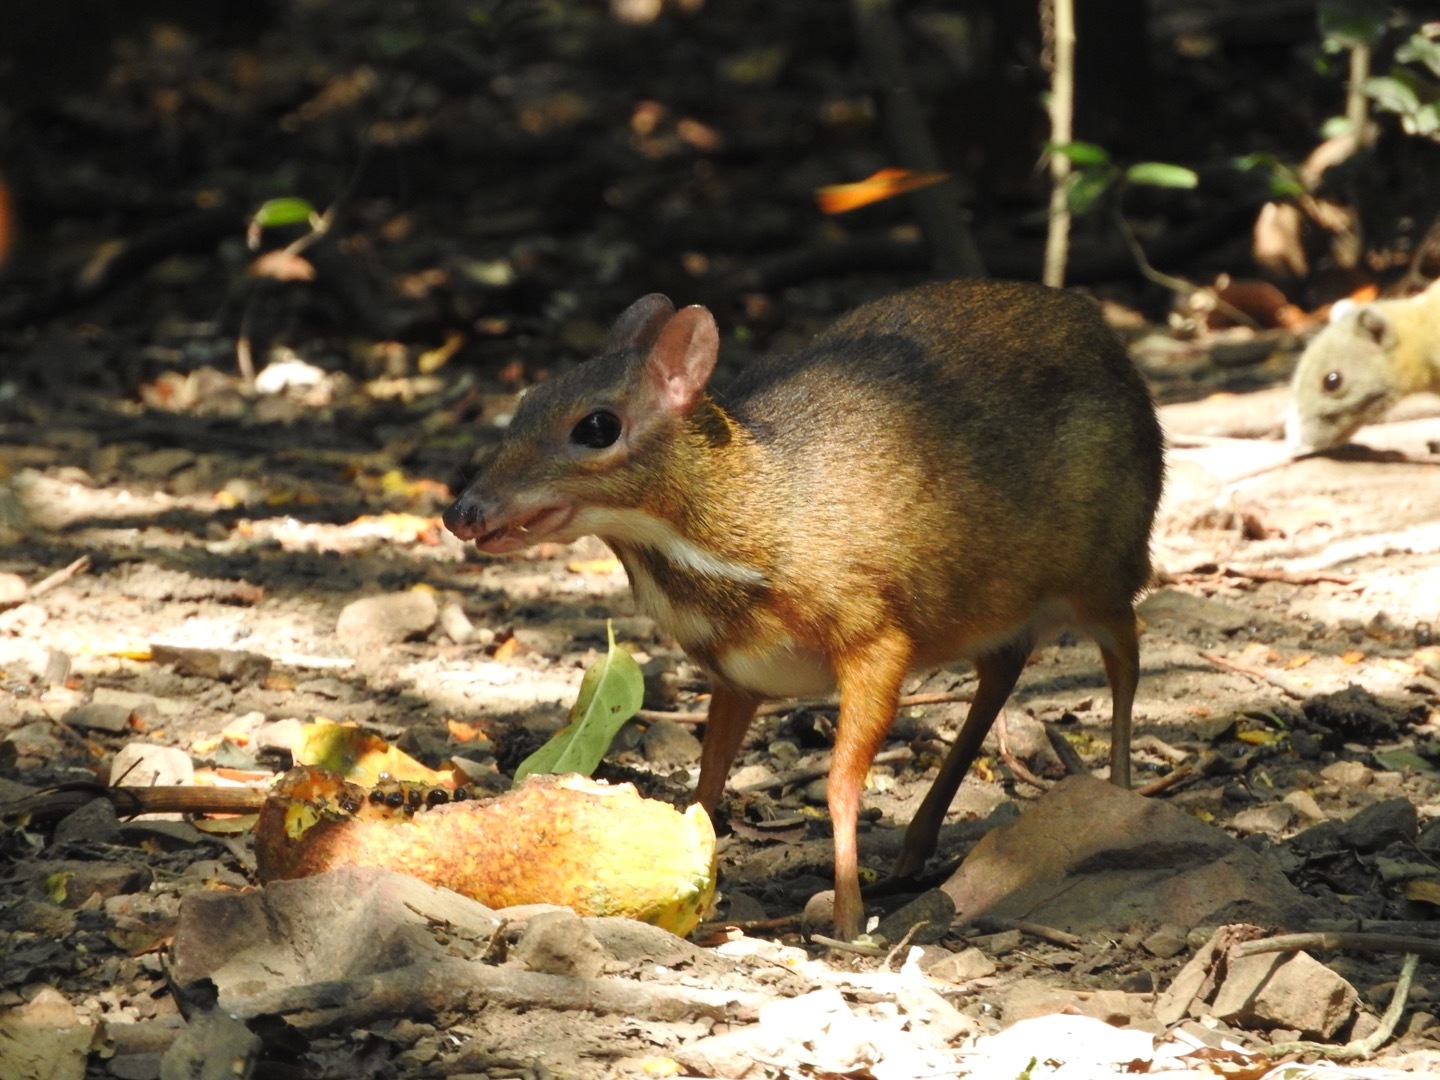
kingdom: Animalia
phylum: Chordata
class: Mammalia
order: Artiodactyla
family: Tragulidae
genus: Tragulus
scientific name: Tragulus kanchil
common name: Lesser mouse-deer
